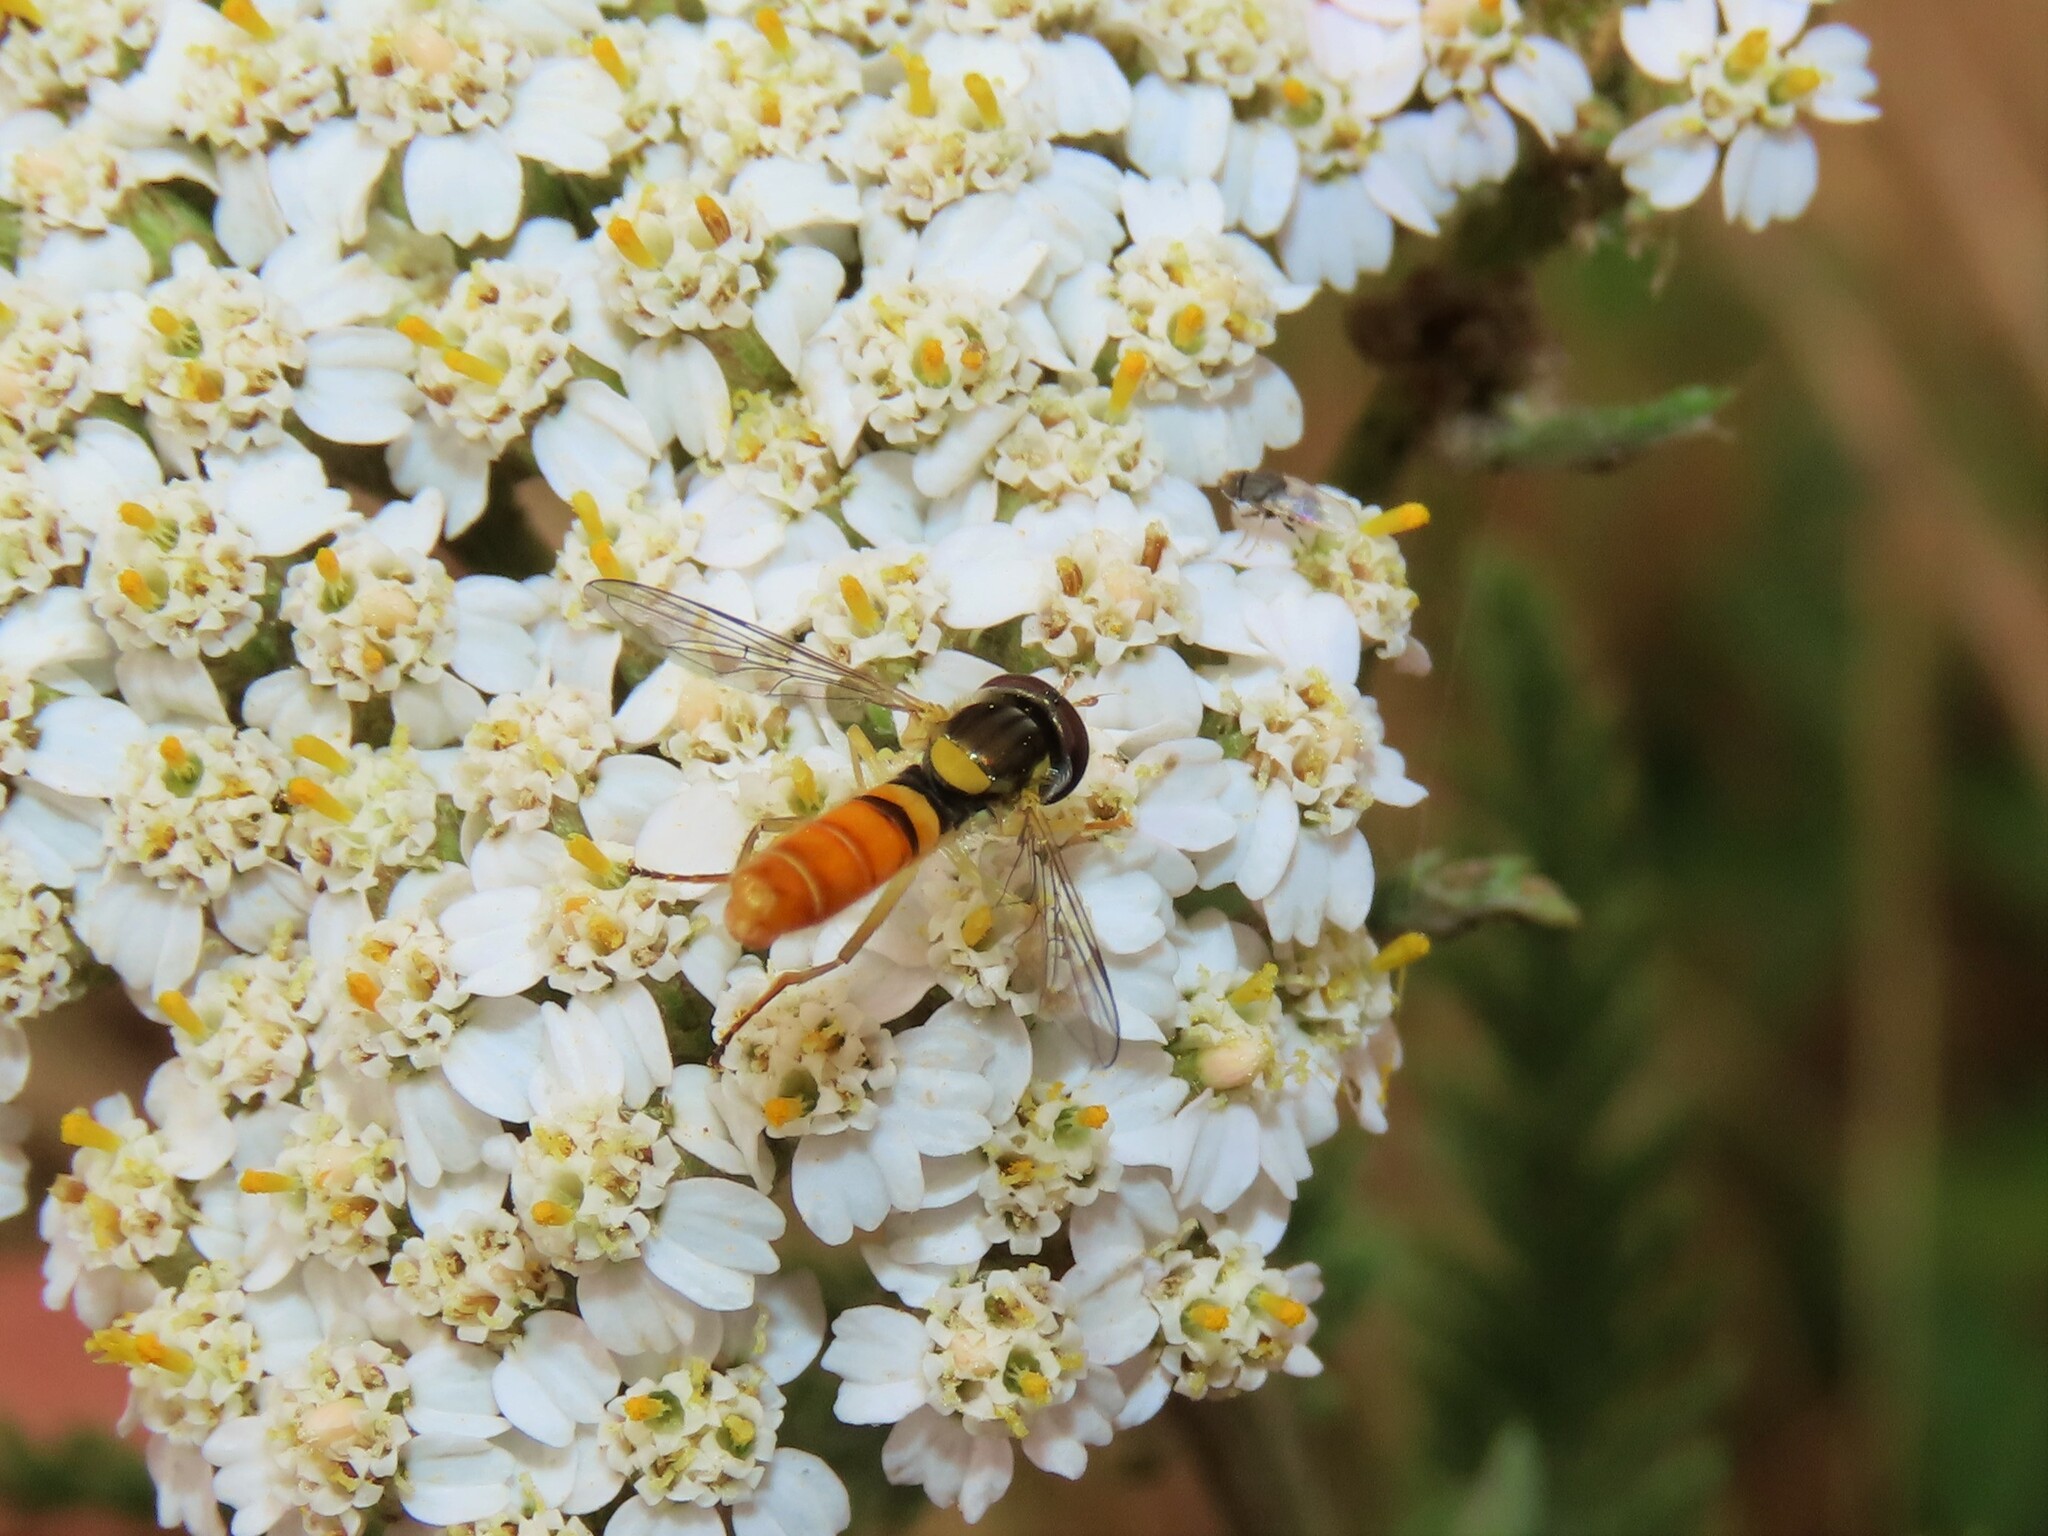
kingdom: Animalia
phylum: Arthropoda
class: Insecta
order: Diptera
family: Syrphidae
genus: Sphaerophoria
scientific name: Sphaerophoria contigua
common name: Tufted globetail
